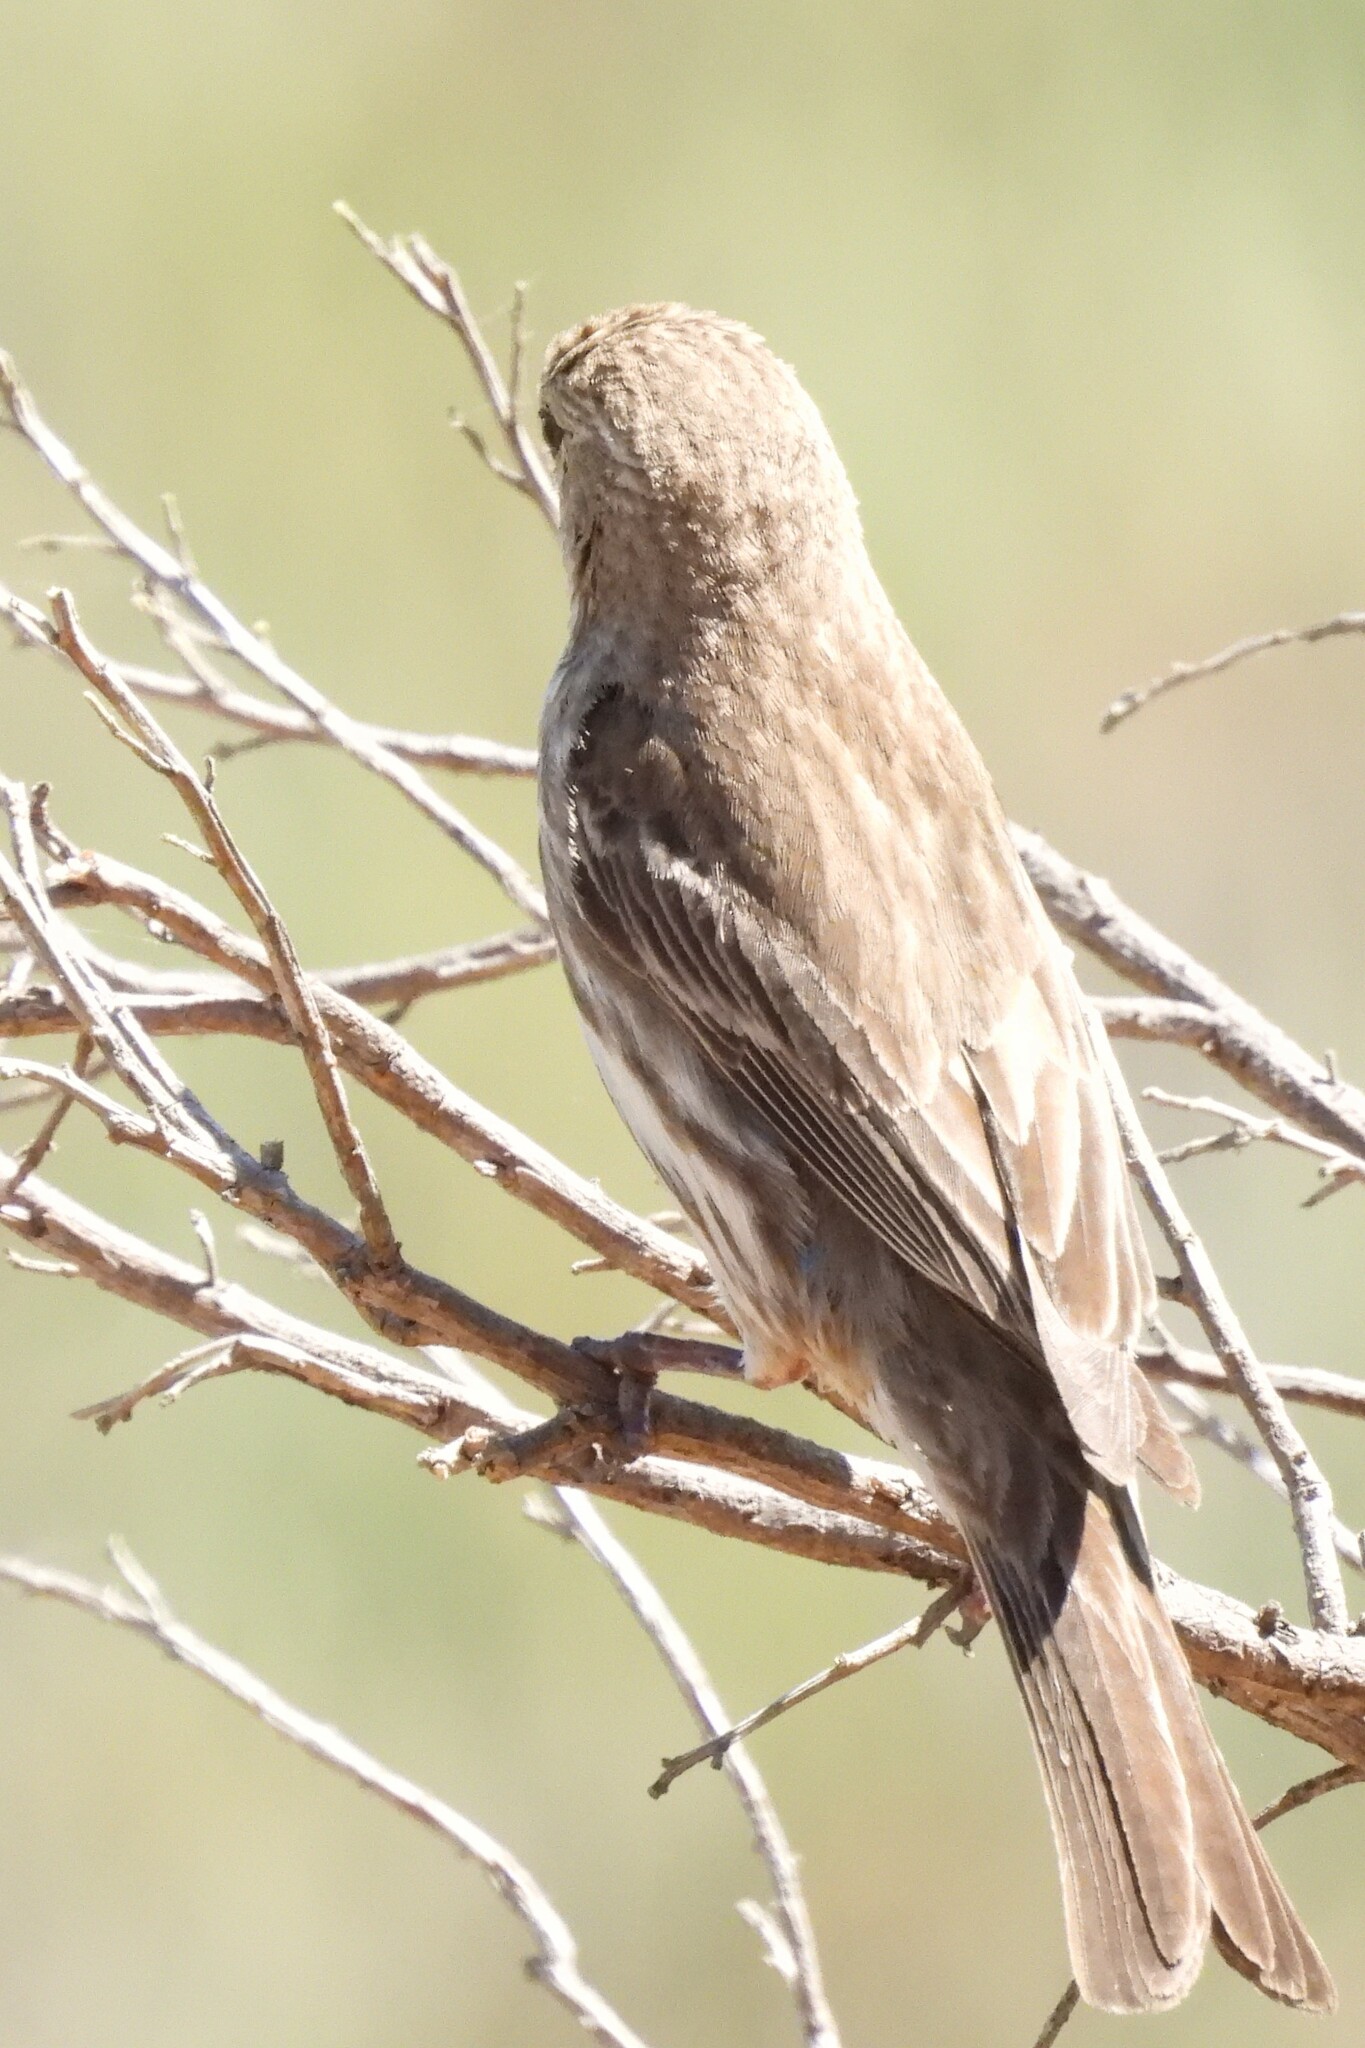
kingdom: Animalia
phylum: Chordata
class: Aves
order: Passeriformes
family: Fringillidae
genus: Haemorhous
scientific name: Haemorhous mexicanus
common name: House finch
